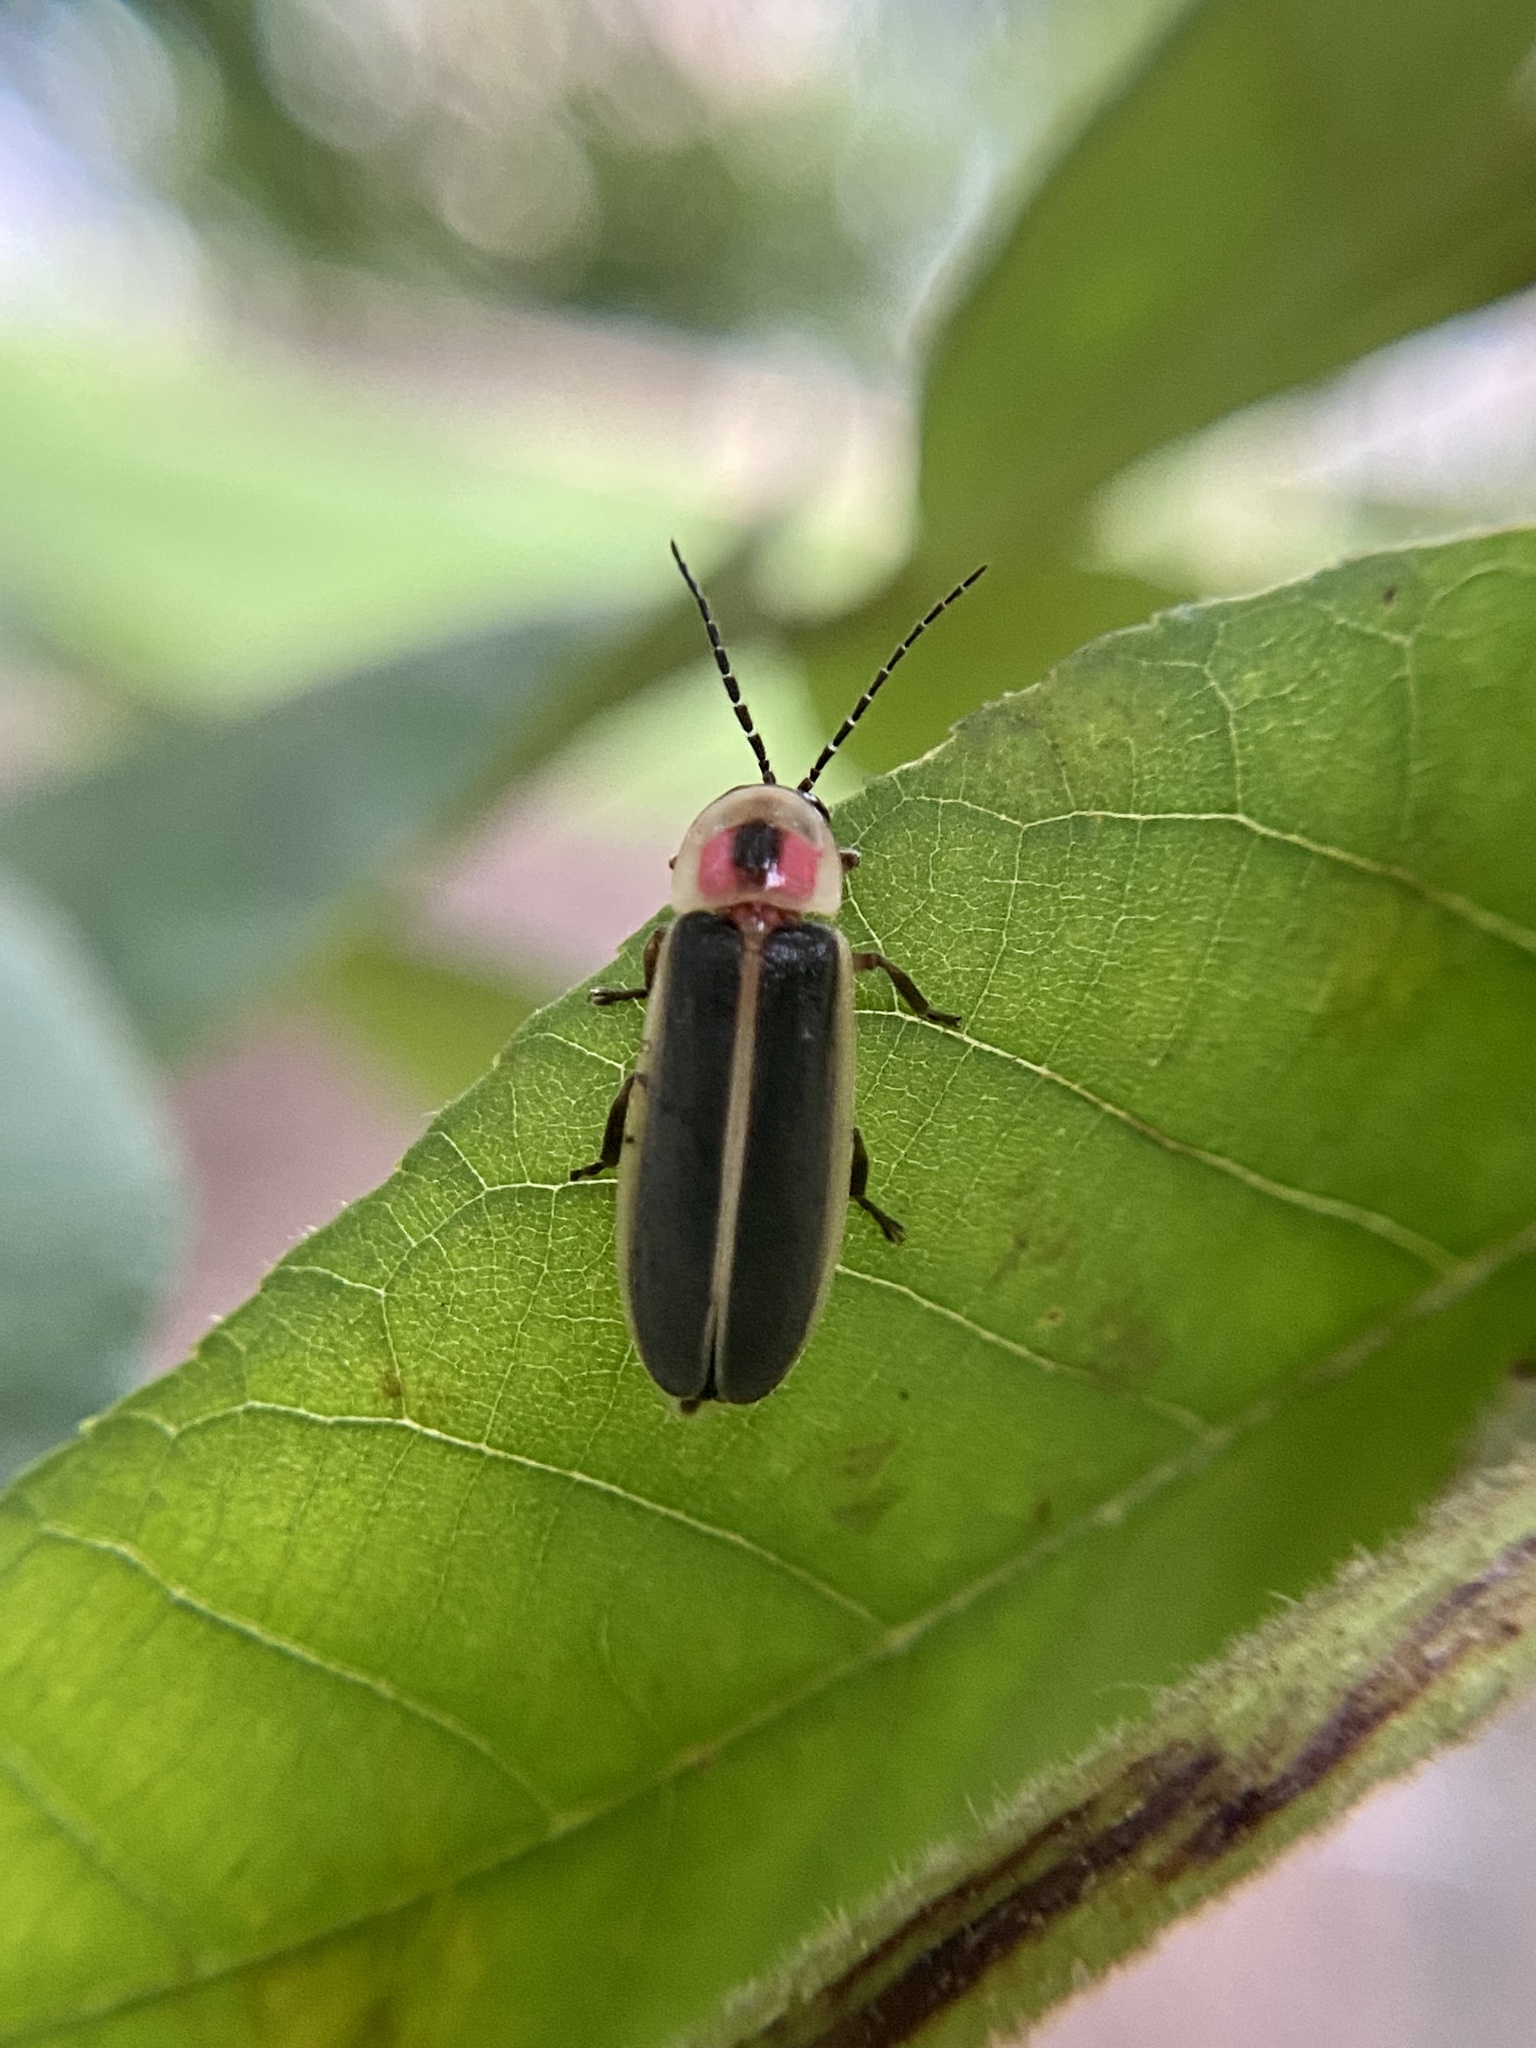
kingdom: Animalia
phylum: Arthropoda
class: Insecta
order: Coleoptera
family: Lampyridae
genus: Photinus
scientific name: Photinus pyralis
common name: Big dipper firefly
